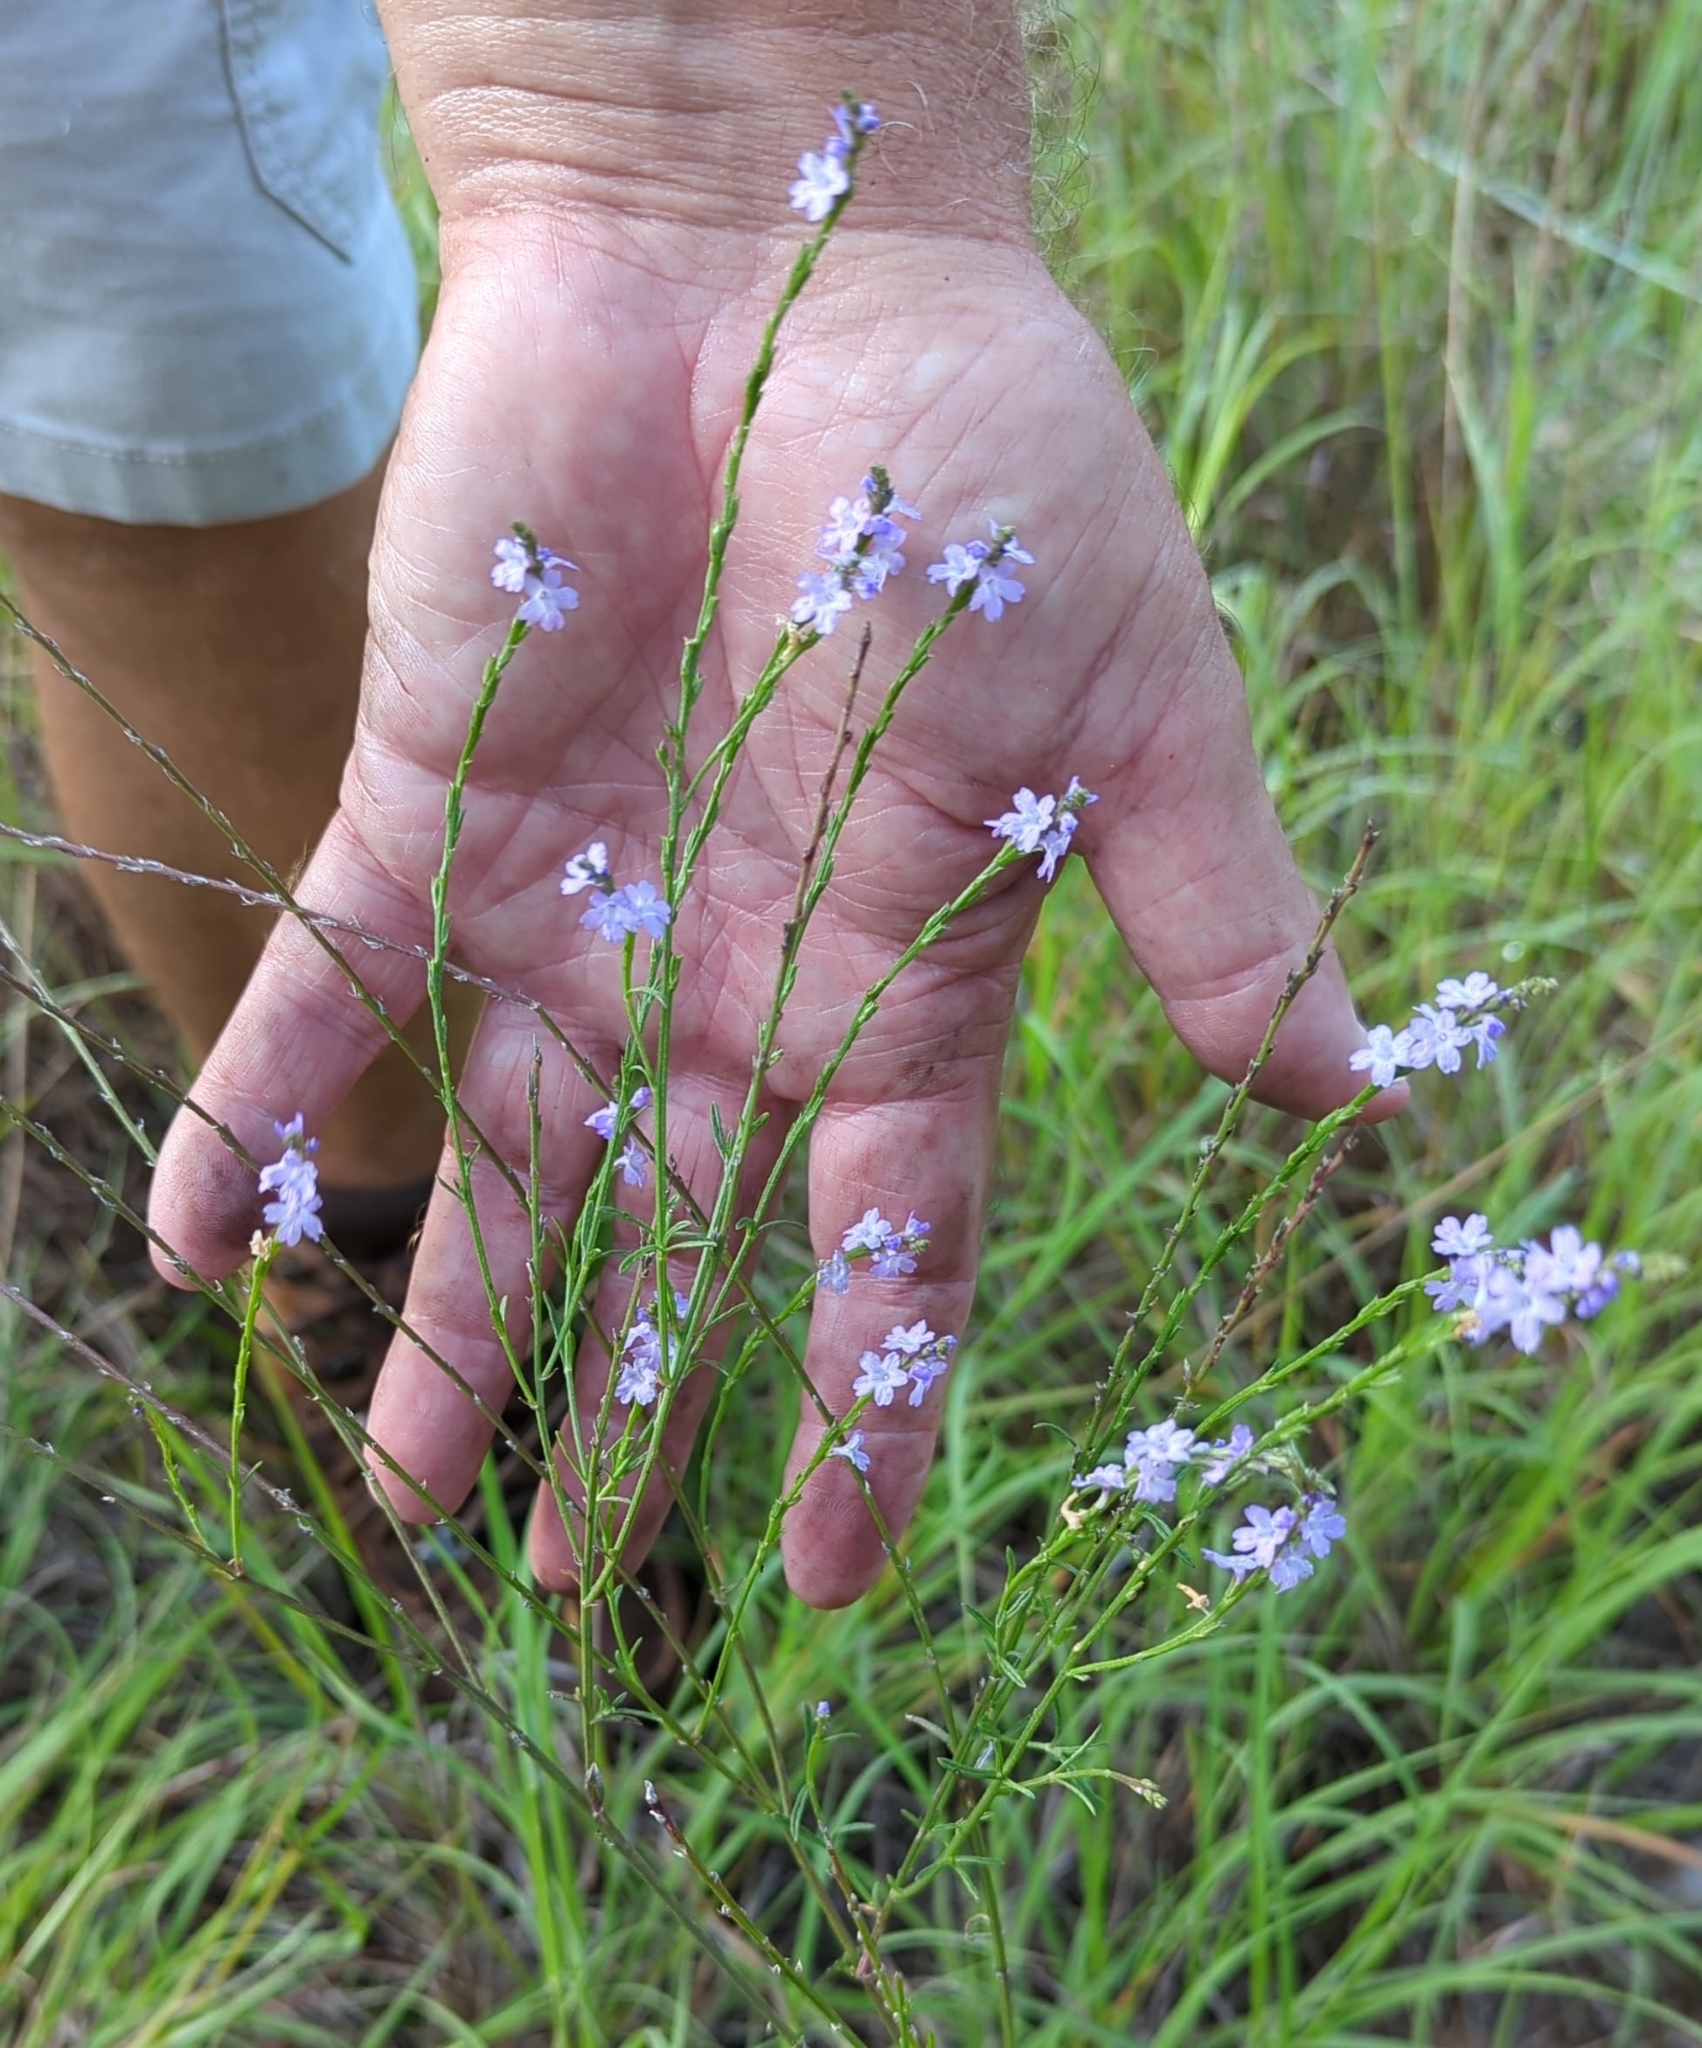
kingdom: Plantae
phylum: Tracheophyta
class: Magnoliopsida
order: Lamiales
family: Verbenaceae
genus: Verbena
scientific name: Verbena halei
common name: Texas vervain
